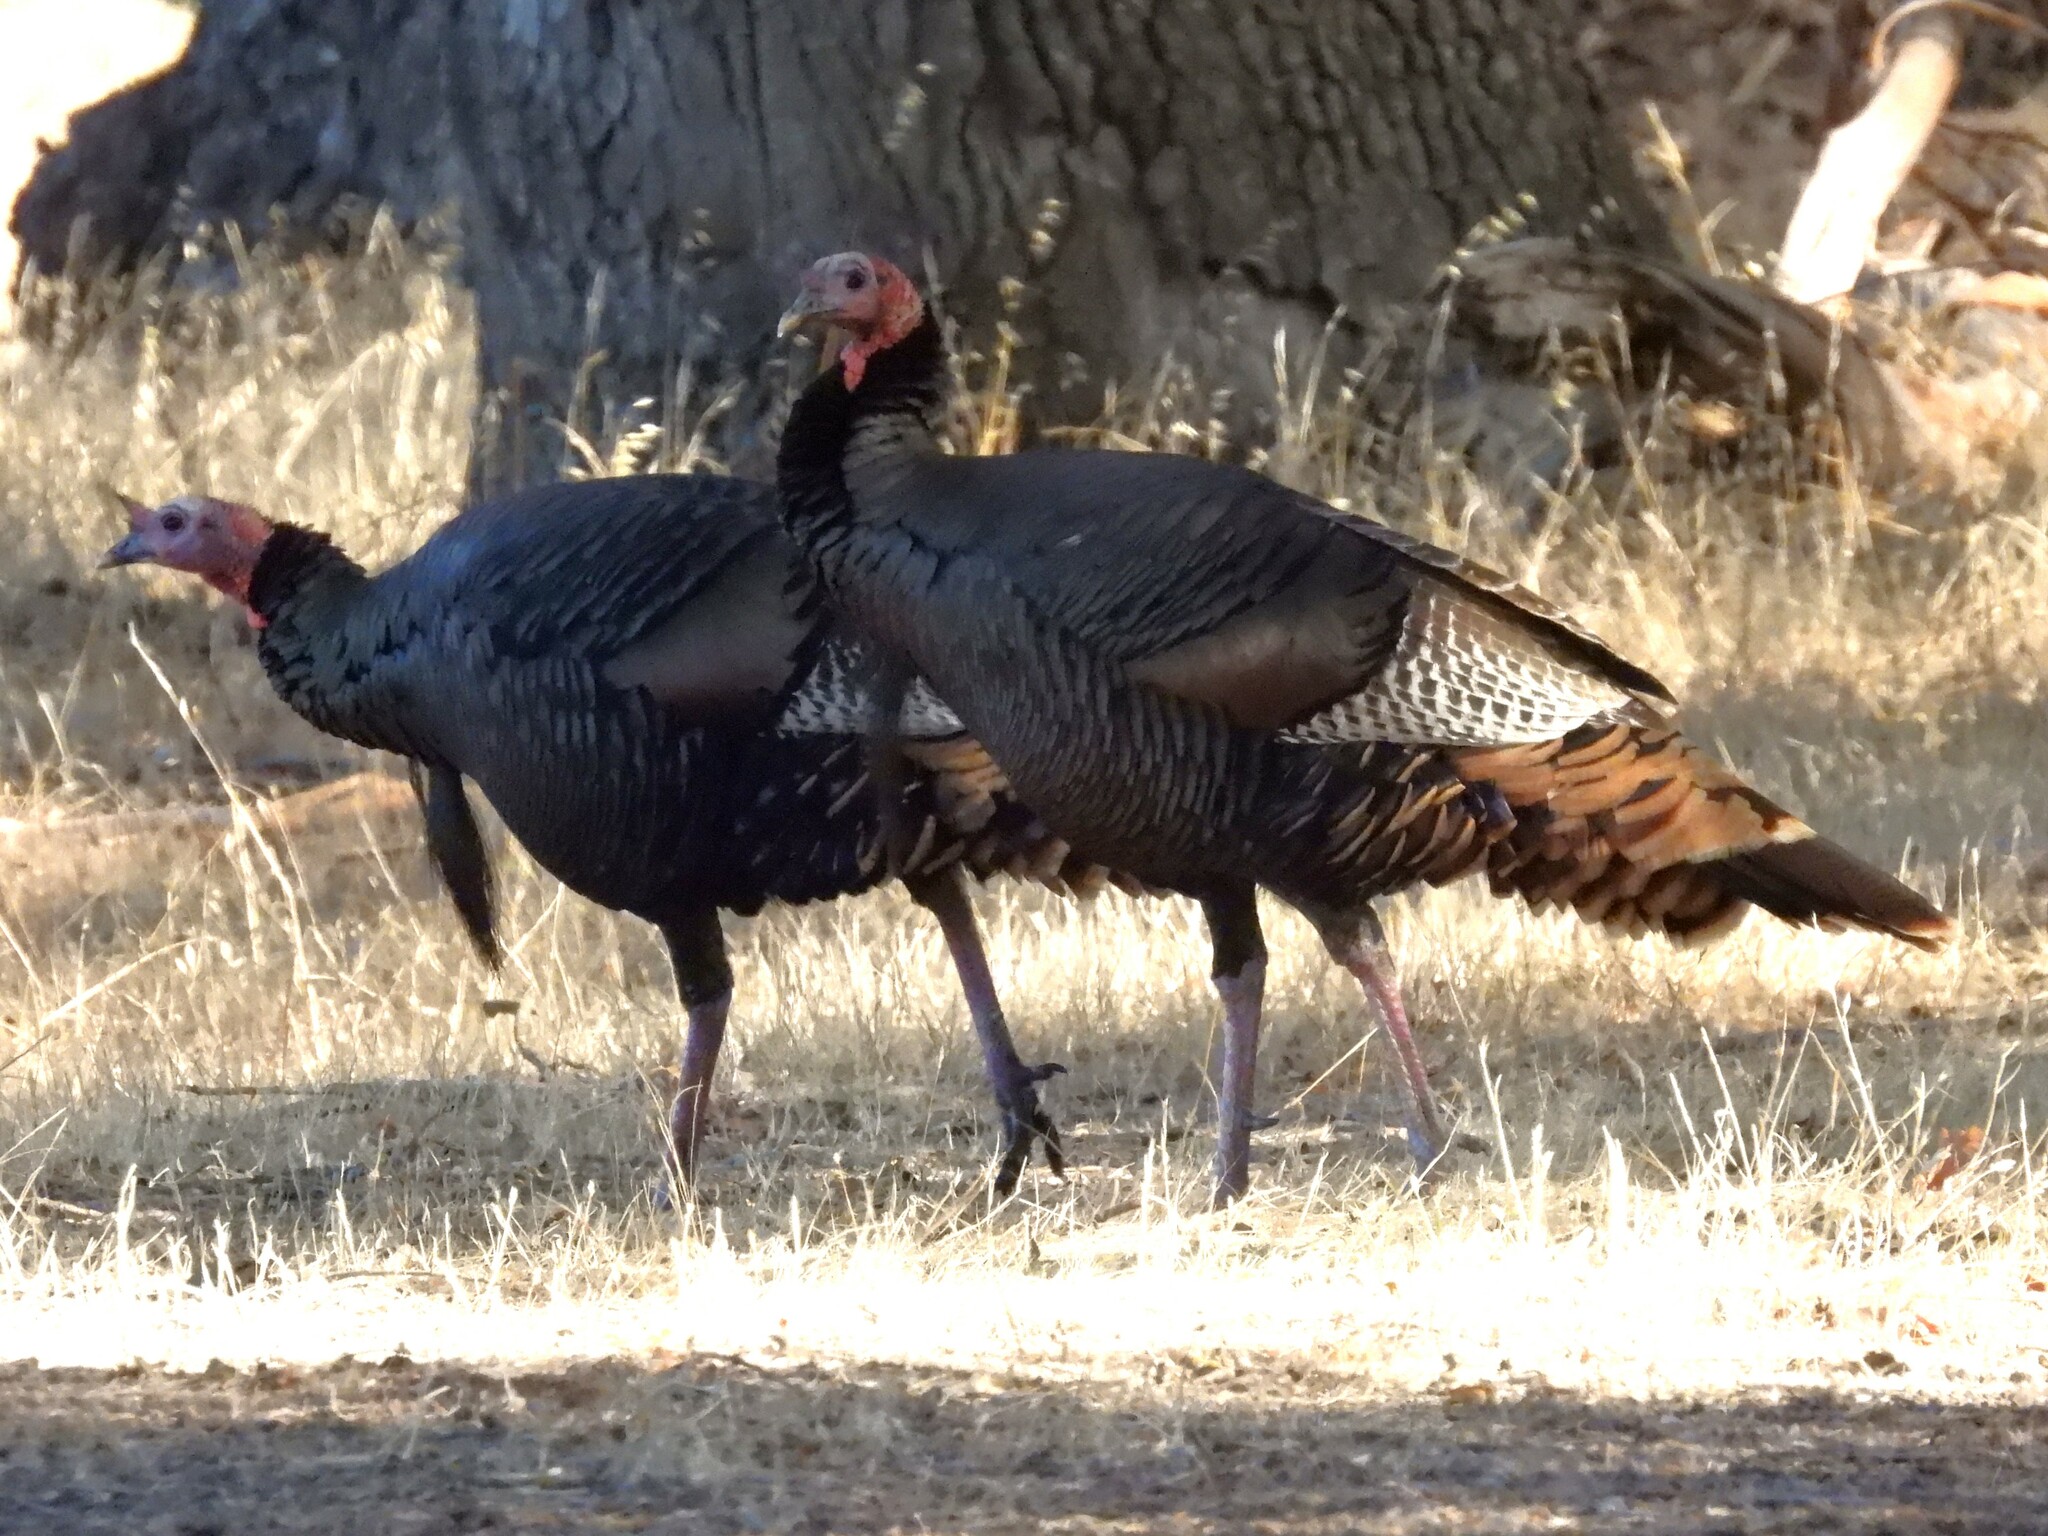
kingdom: Animalia
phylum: Chordata
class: Aves
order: Galliformes
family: Phasianidae
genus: Meleagris
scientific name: Meleagris gallopavo
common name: Wild turkey
